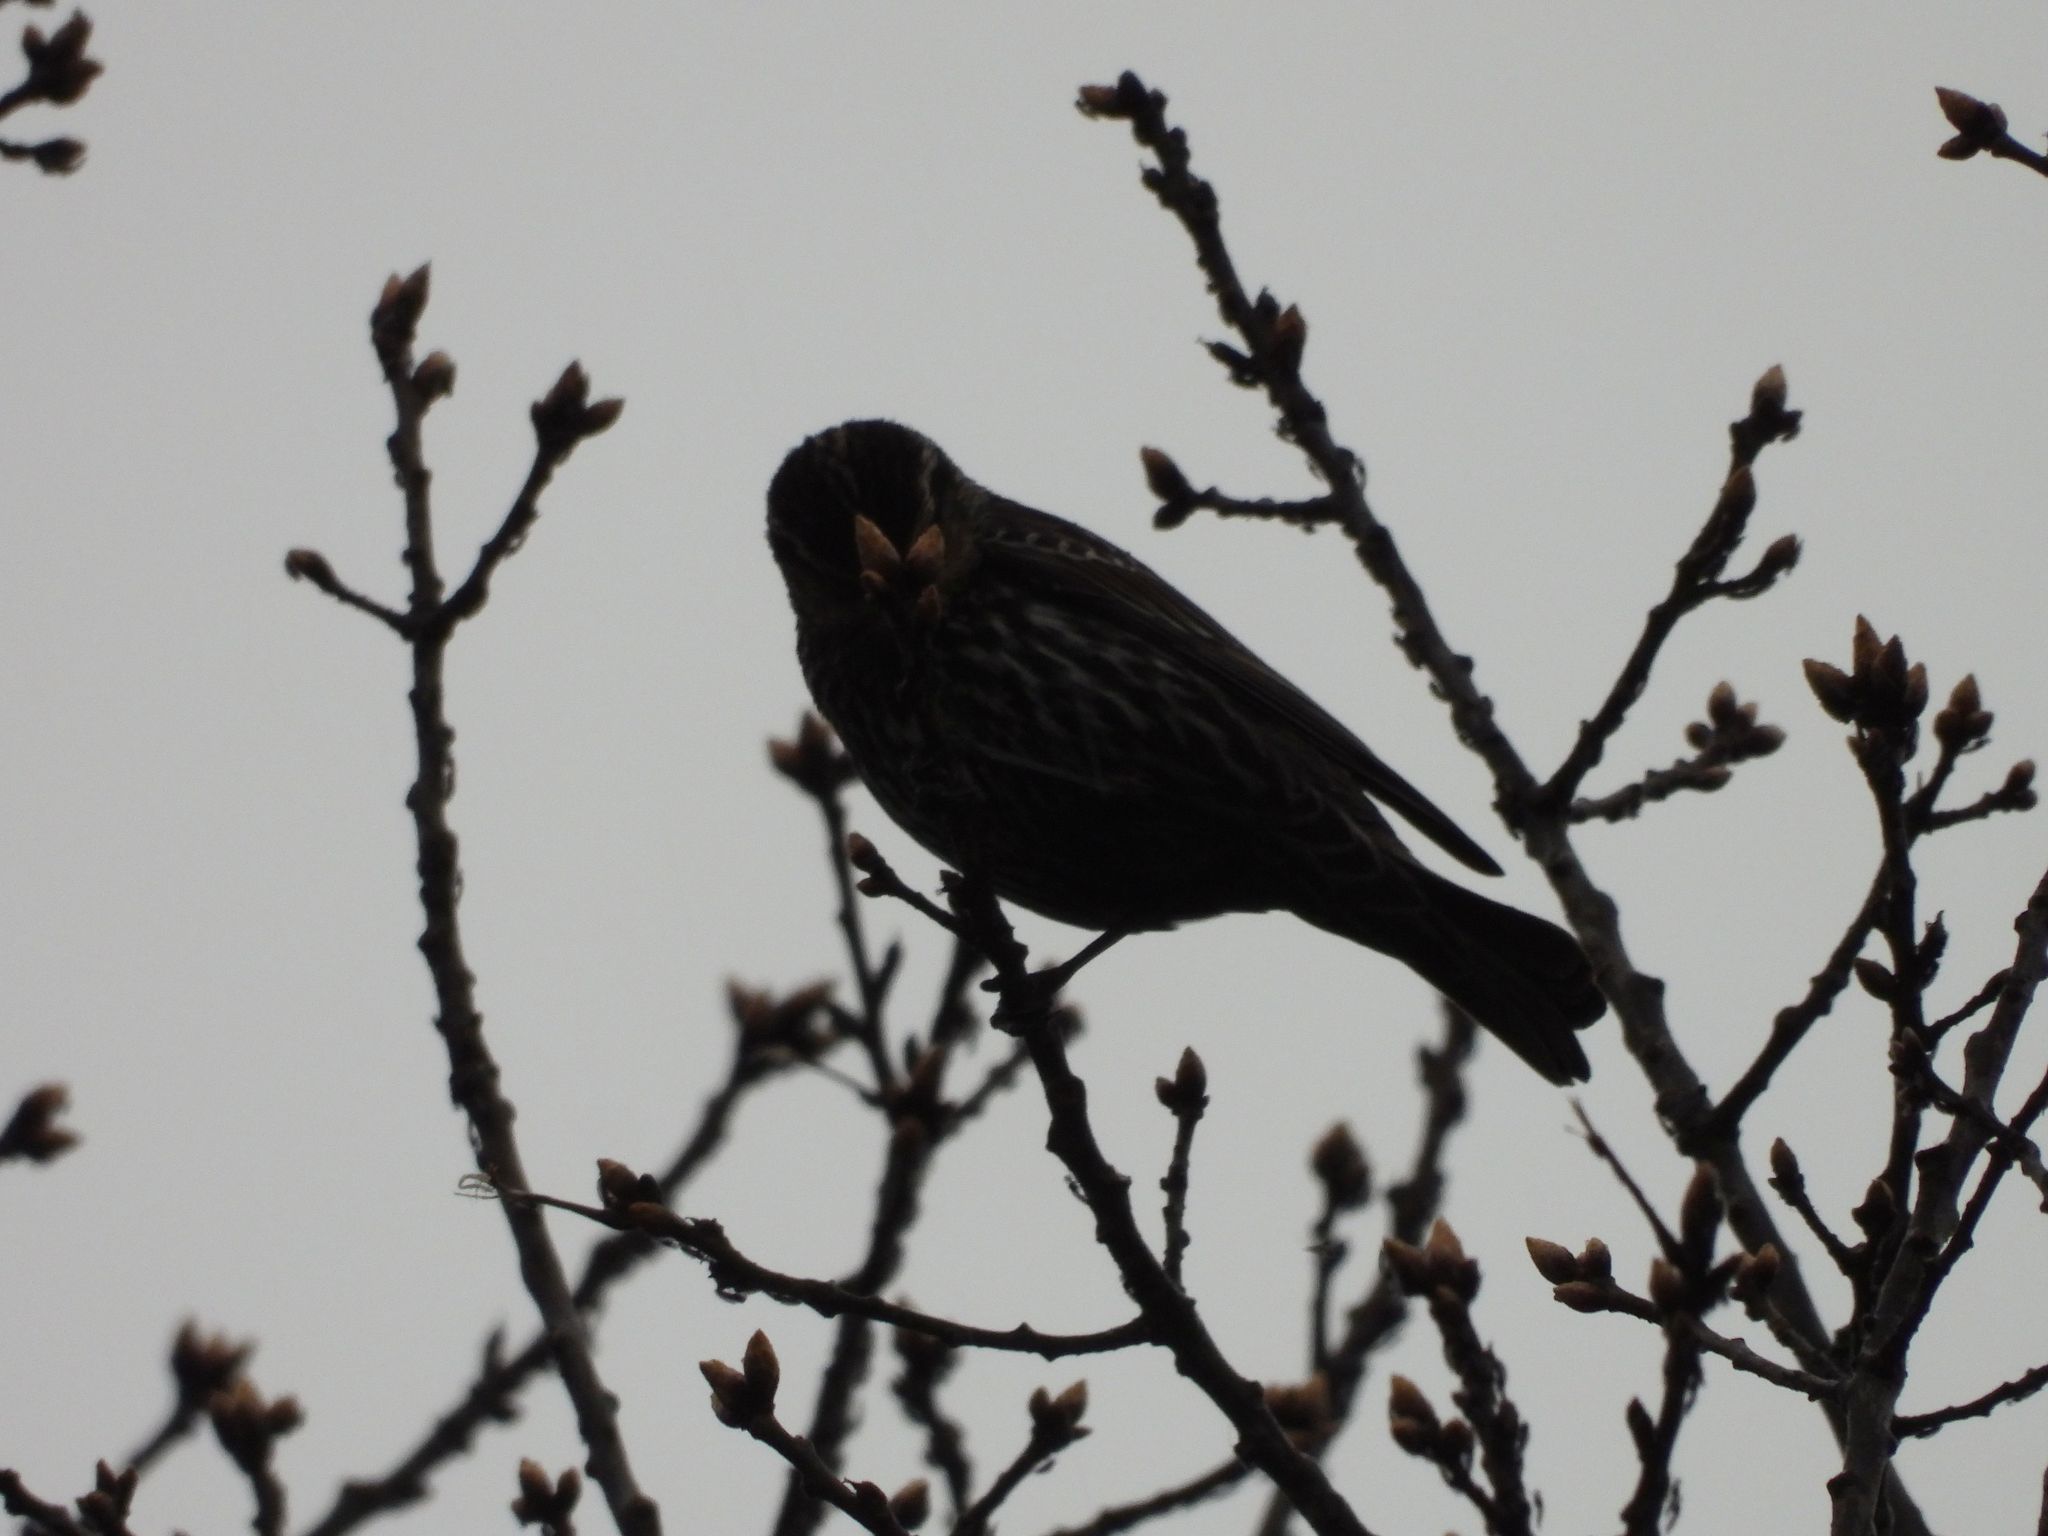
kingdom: Animalia
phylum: Chordata
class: Aves
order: Passeriformes
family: Icteridae
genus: Agelaius
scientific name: Agelaius phoeniceus
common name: Red-winged blackbird
